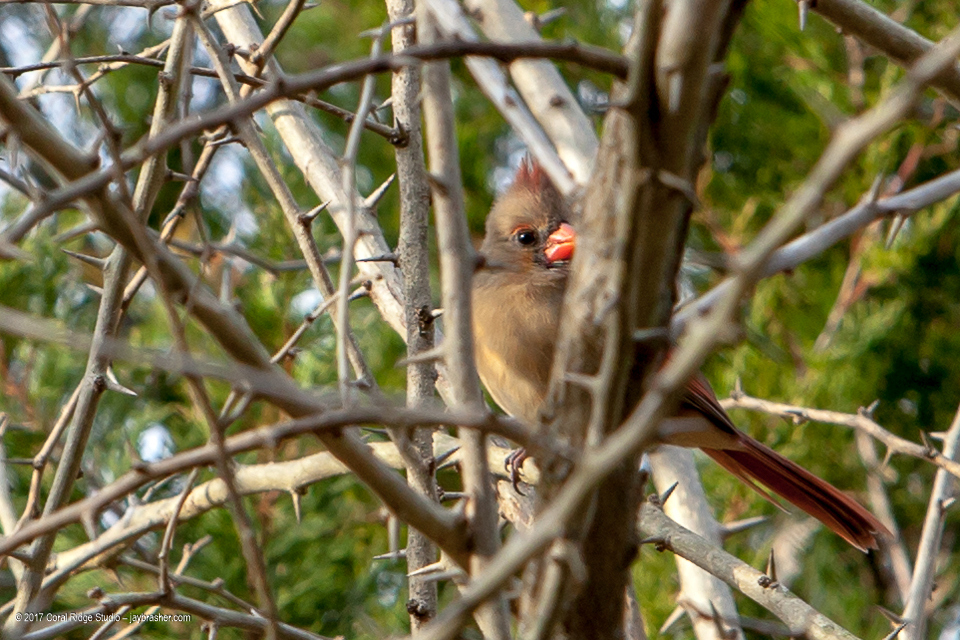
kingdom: Animalia
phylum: Chordata
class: Aves
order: Passeriformes
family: Cardinalidae
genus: Cardinalis
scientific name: Cardinalis cardinalis
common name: Northern cardinal
